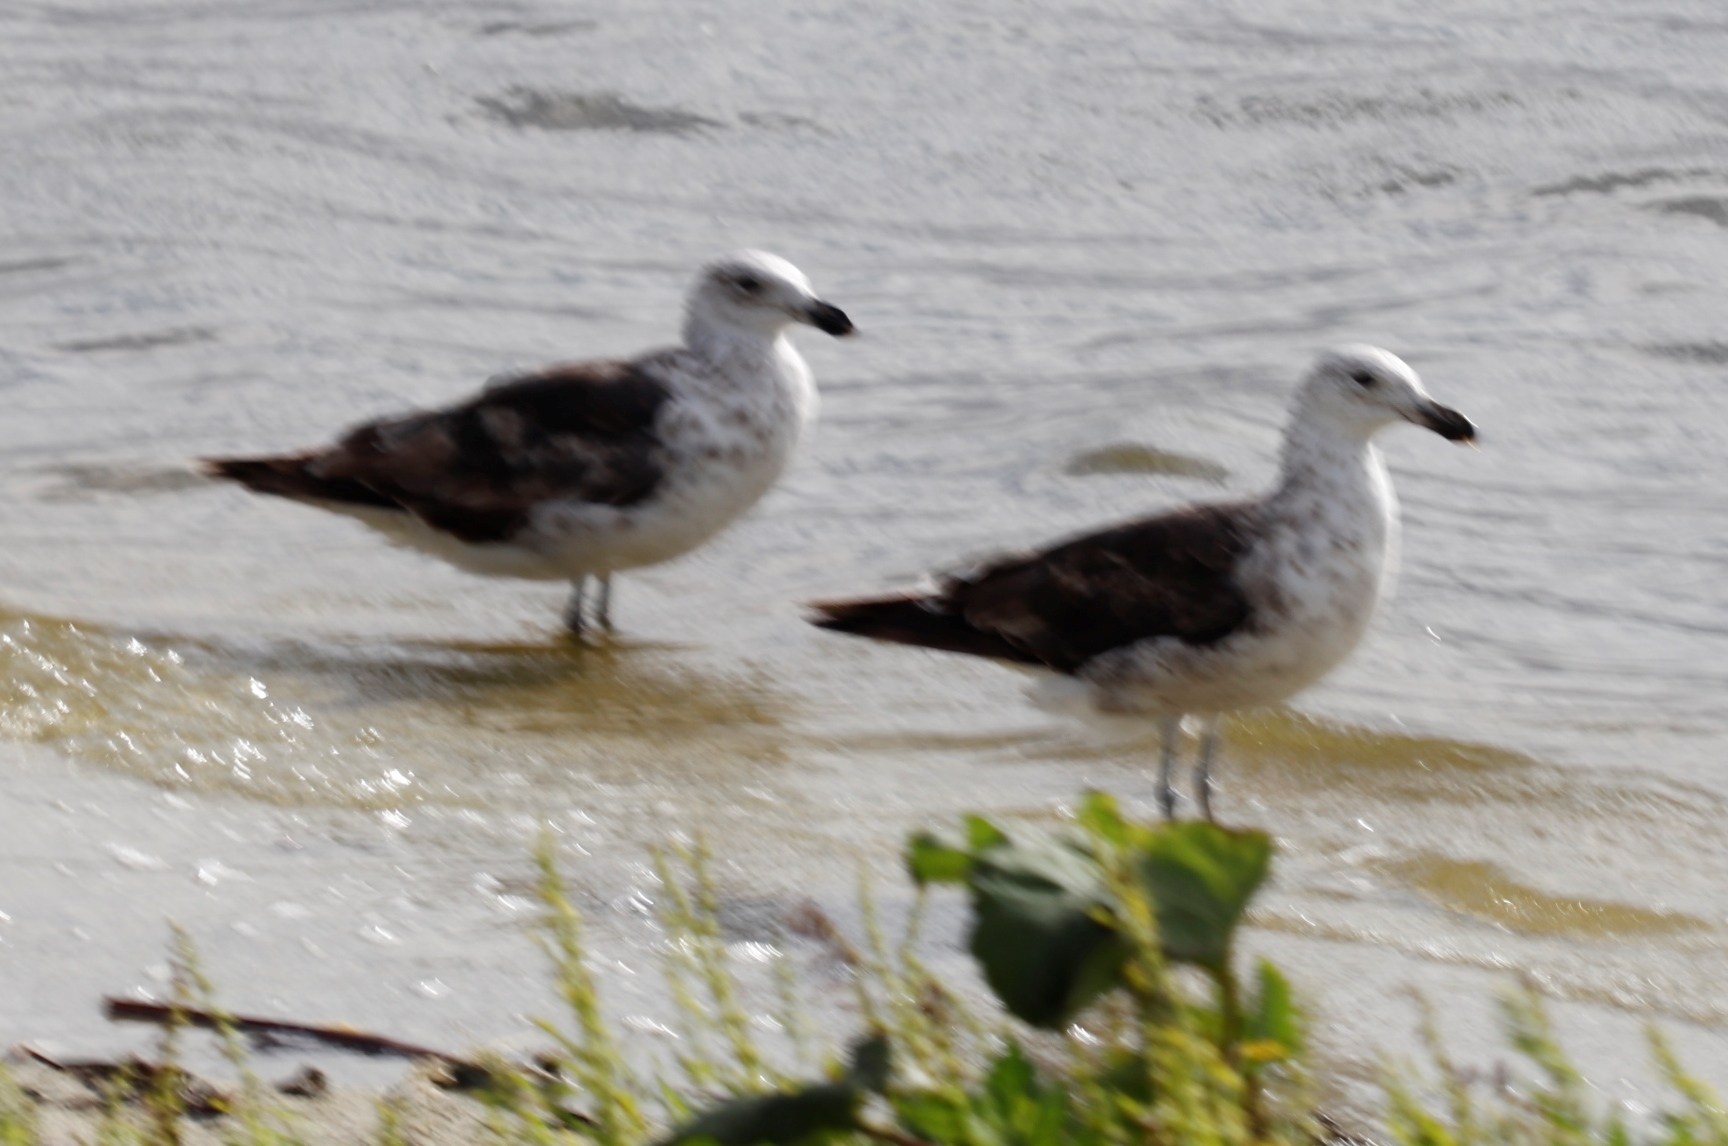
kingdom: Animalia
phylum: Chordata
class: Aves
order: Charadriiformes
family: Laridae
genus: Larus
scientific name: Larus dominicanus
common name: Kelp gull
